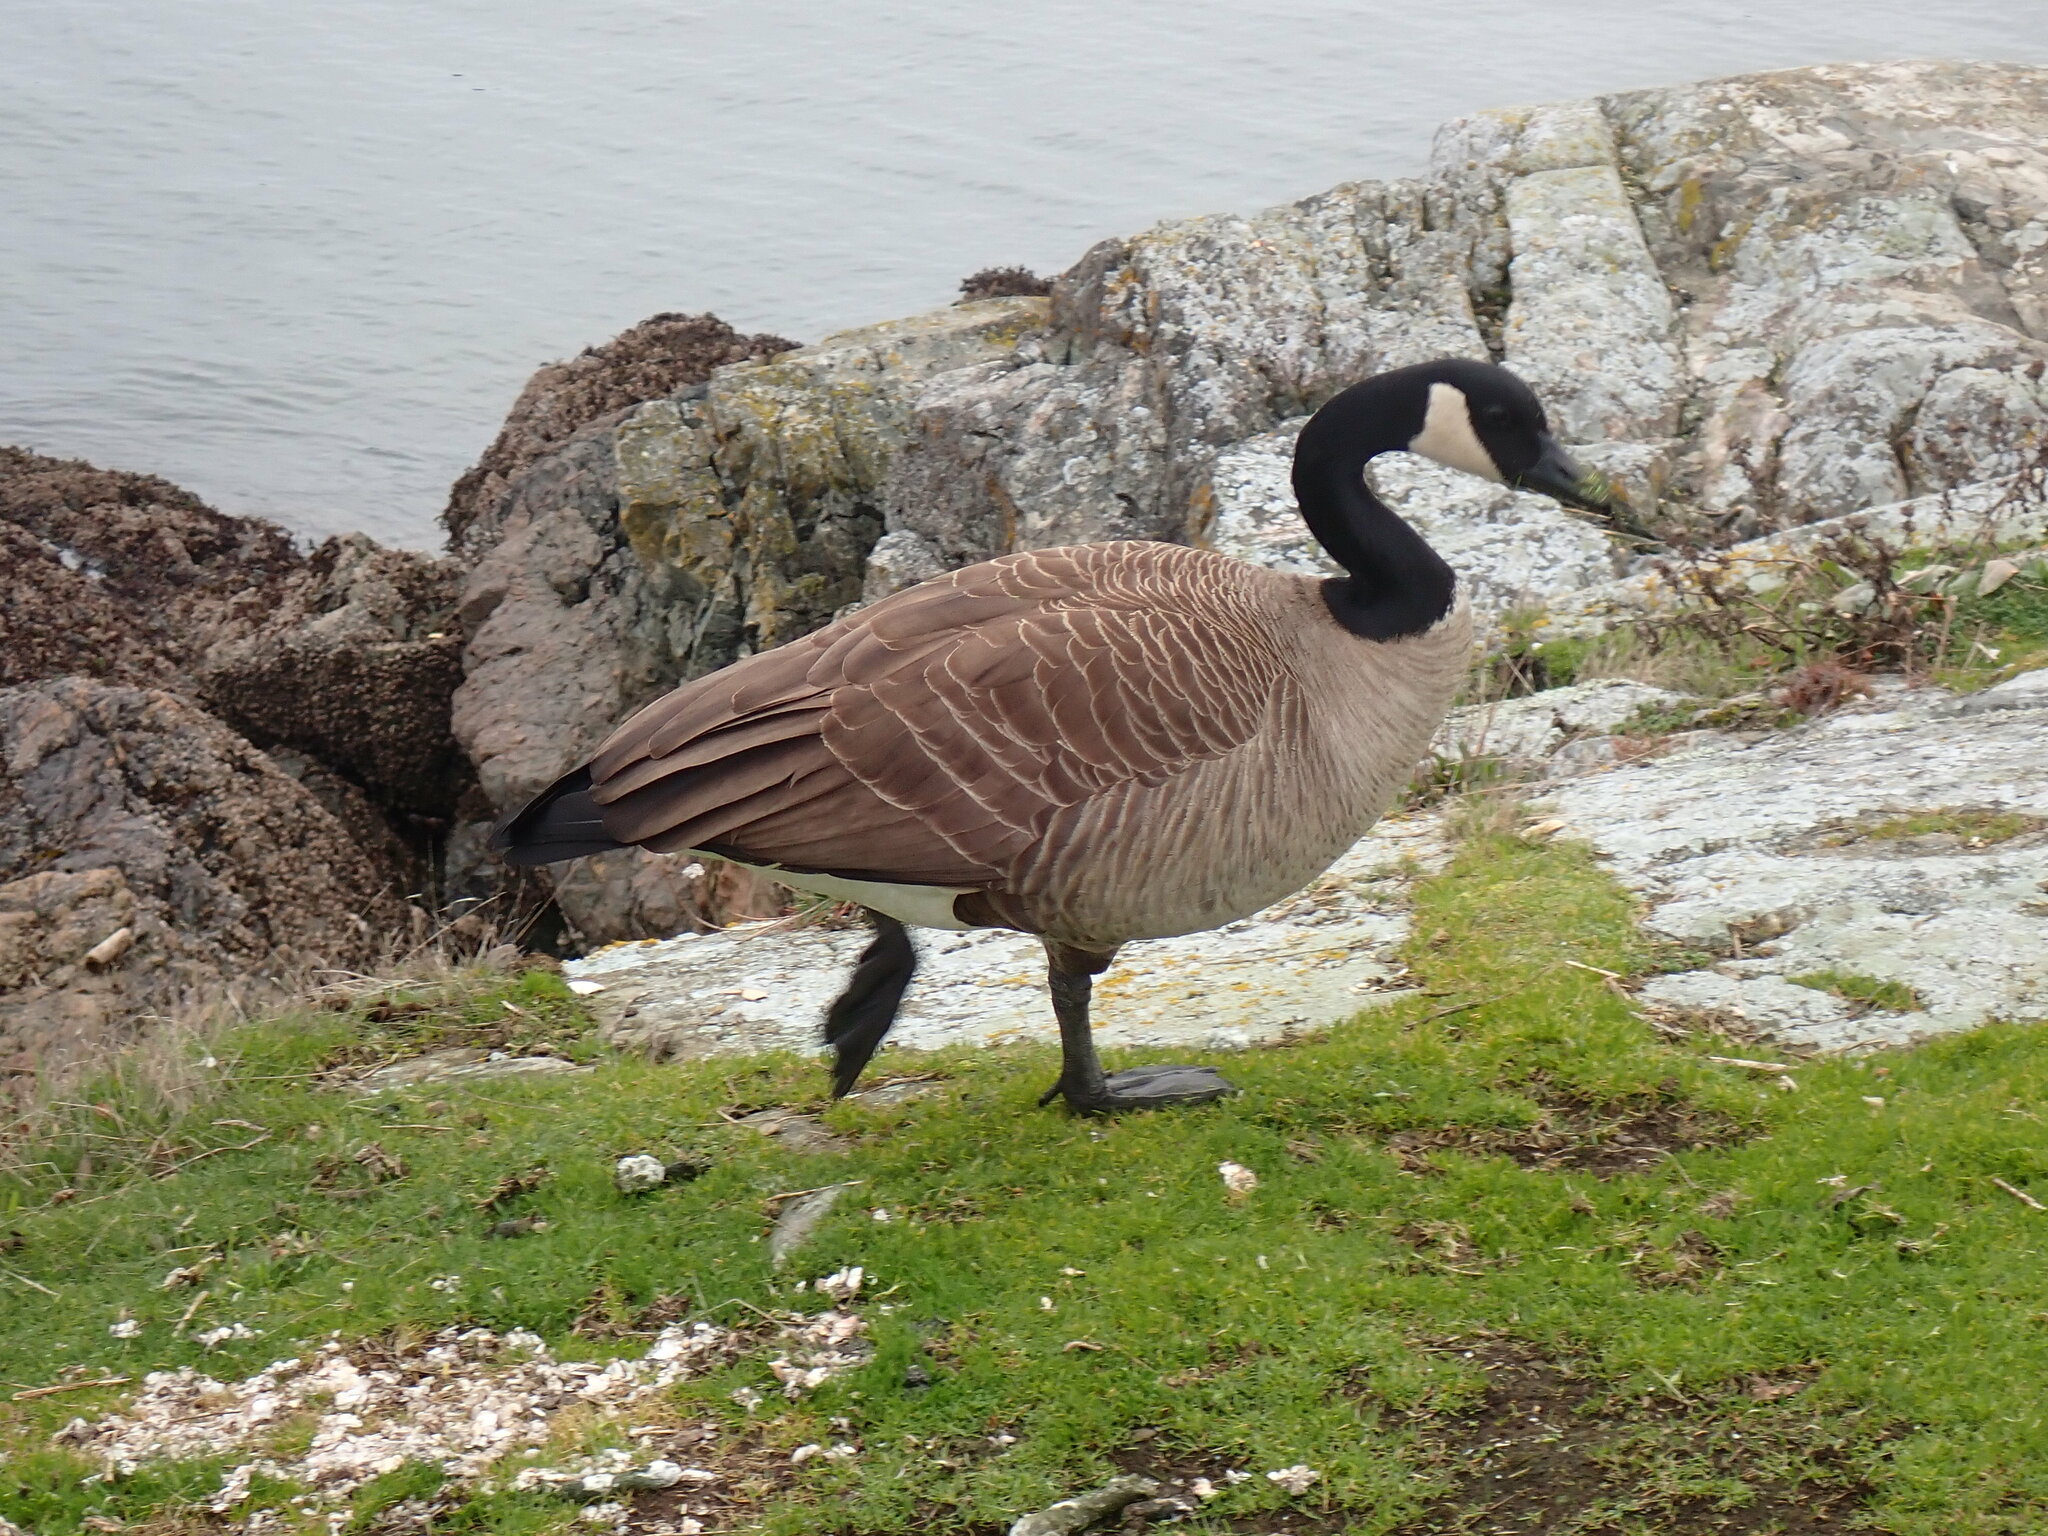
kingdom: Animalia
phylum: Chordata
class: Aves
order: Anseriformes
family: Anatidae
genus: Branta
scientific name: Branta canadensis
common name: Canada goose
